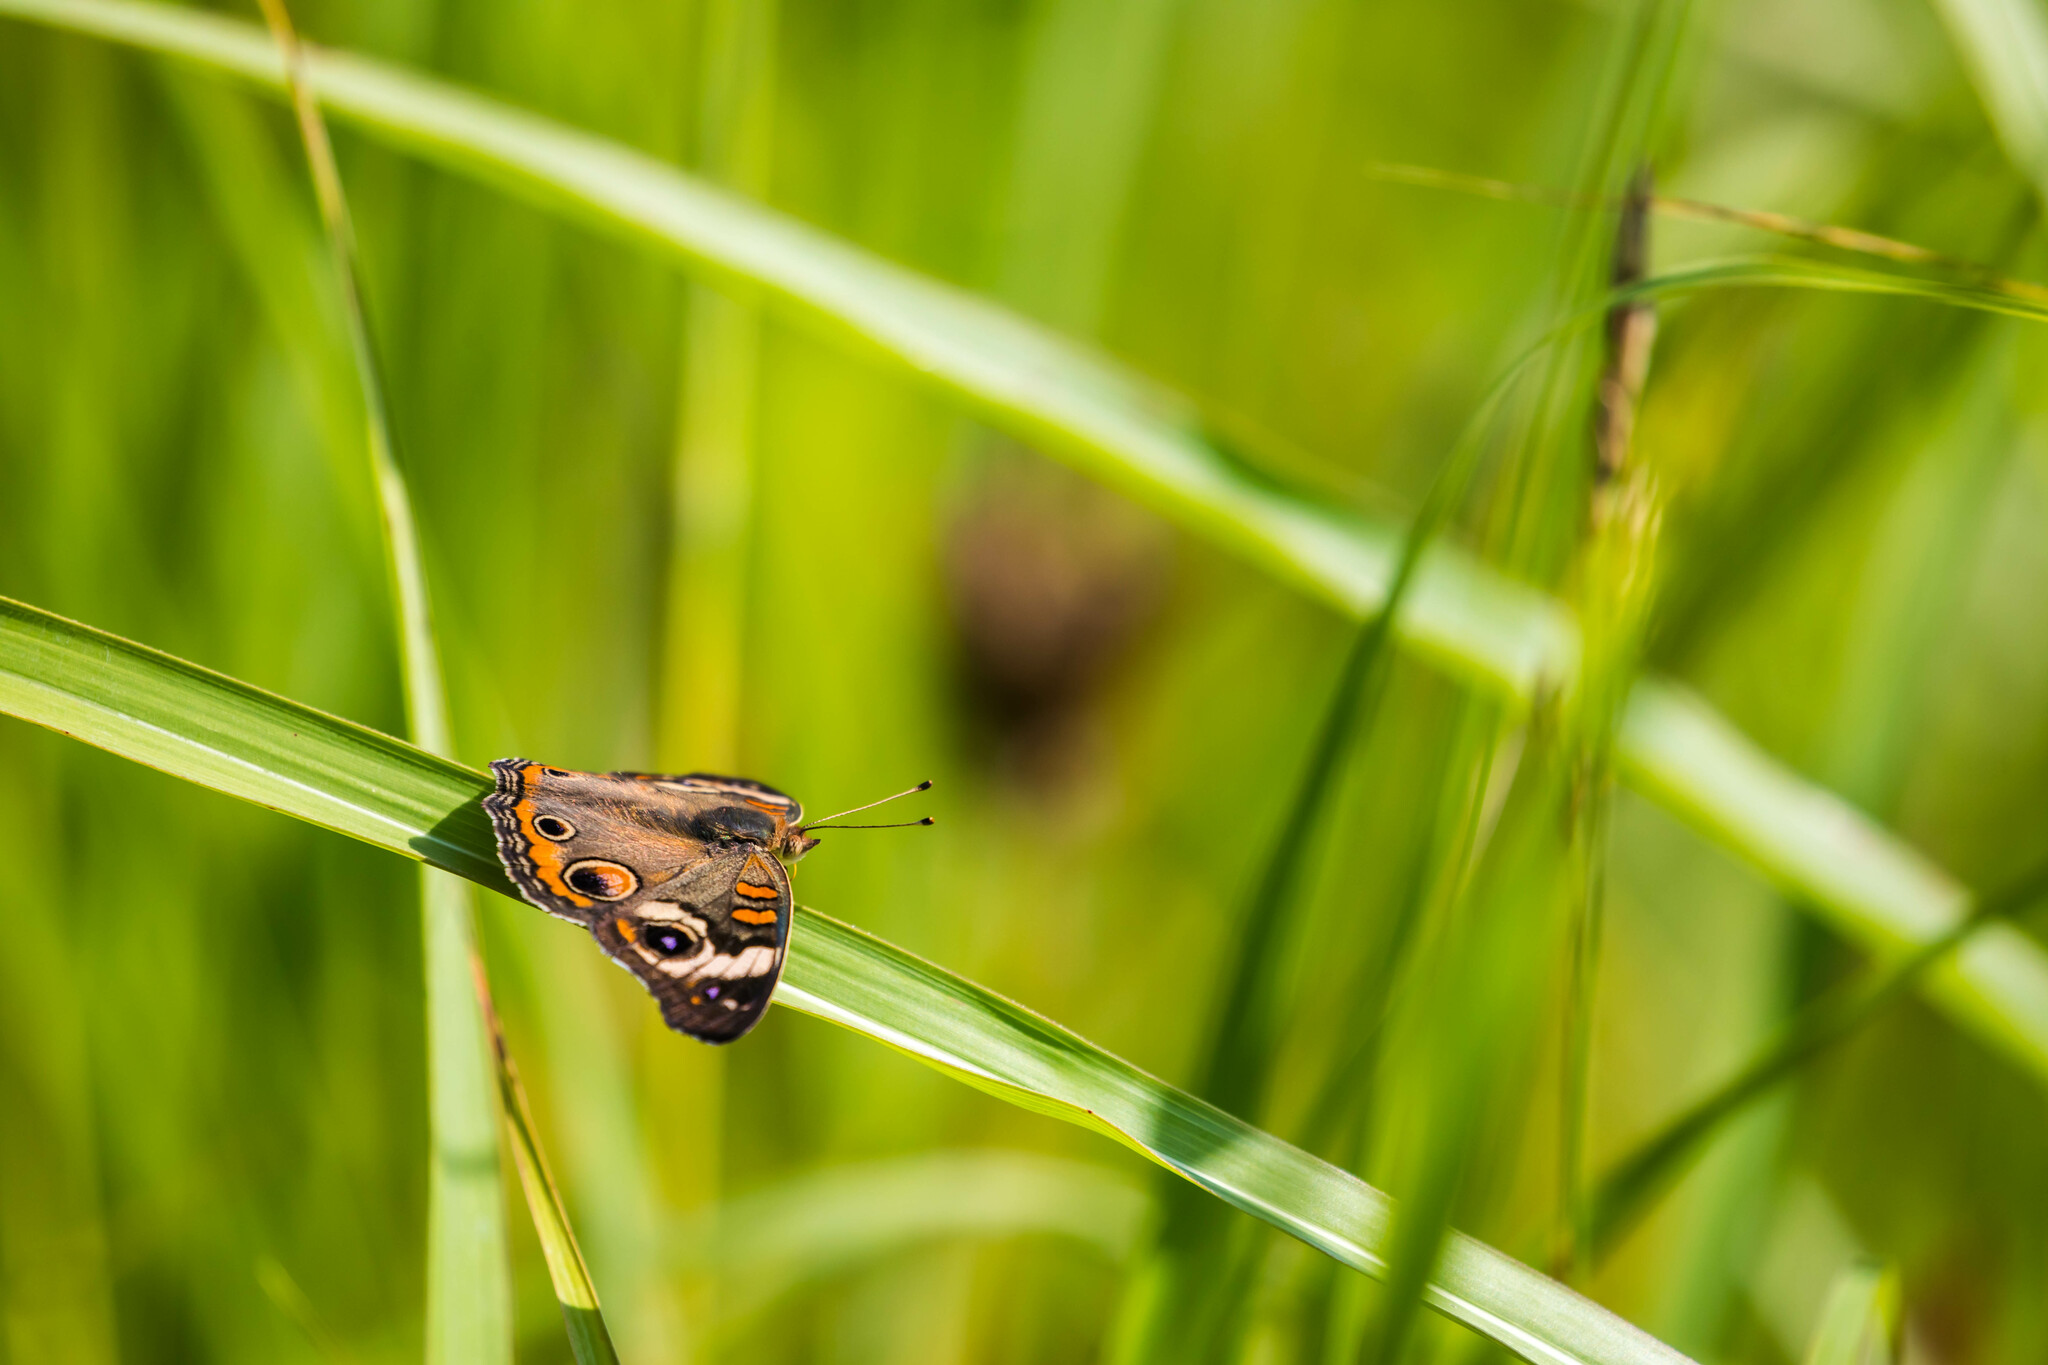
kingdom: Animalia
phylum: Arthropoda
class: Insecta
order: Lepidoptera
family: Nymphalidae
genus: Junonia
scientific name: Junonia coenia
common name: Common buckeye
